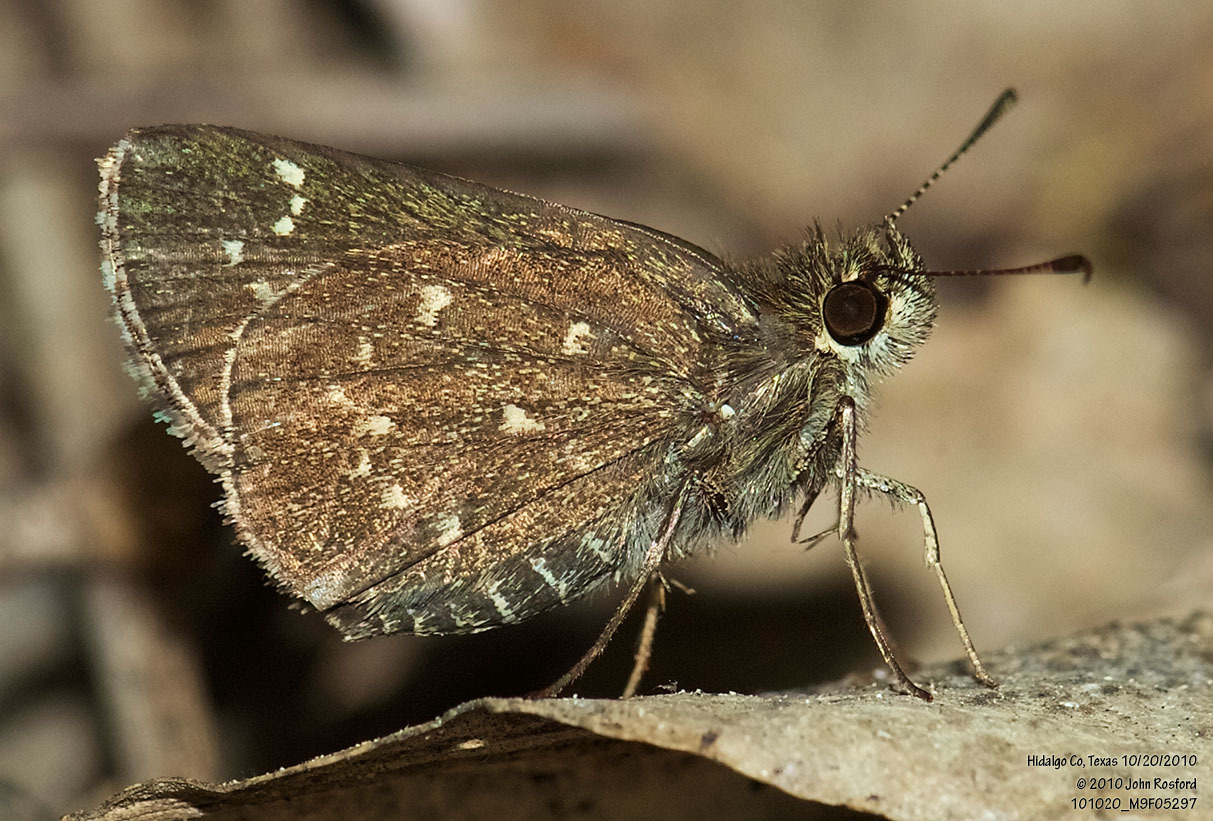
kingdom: Animalia
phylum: Arthropoda
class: Insecta
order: Lepidoptera
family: Hesperiidae
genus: Mastor
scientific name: Mastor celia
